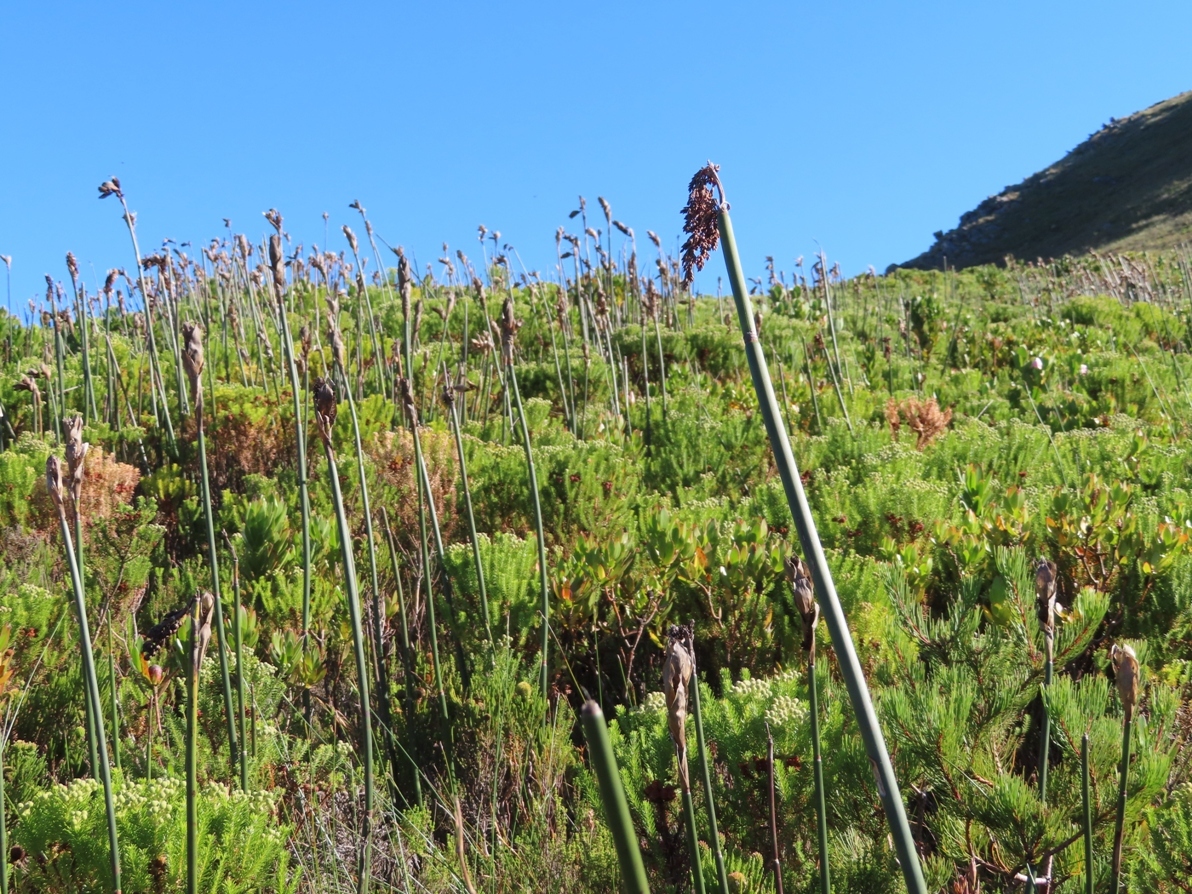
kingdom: Plantae
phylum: Tracheophyta
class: Liliopsida
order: Poales
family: Restionaceae
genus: Elegia
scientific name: Elegia mucronata
